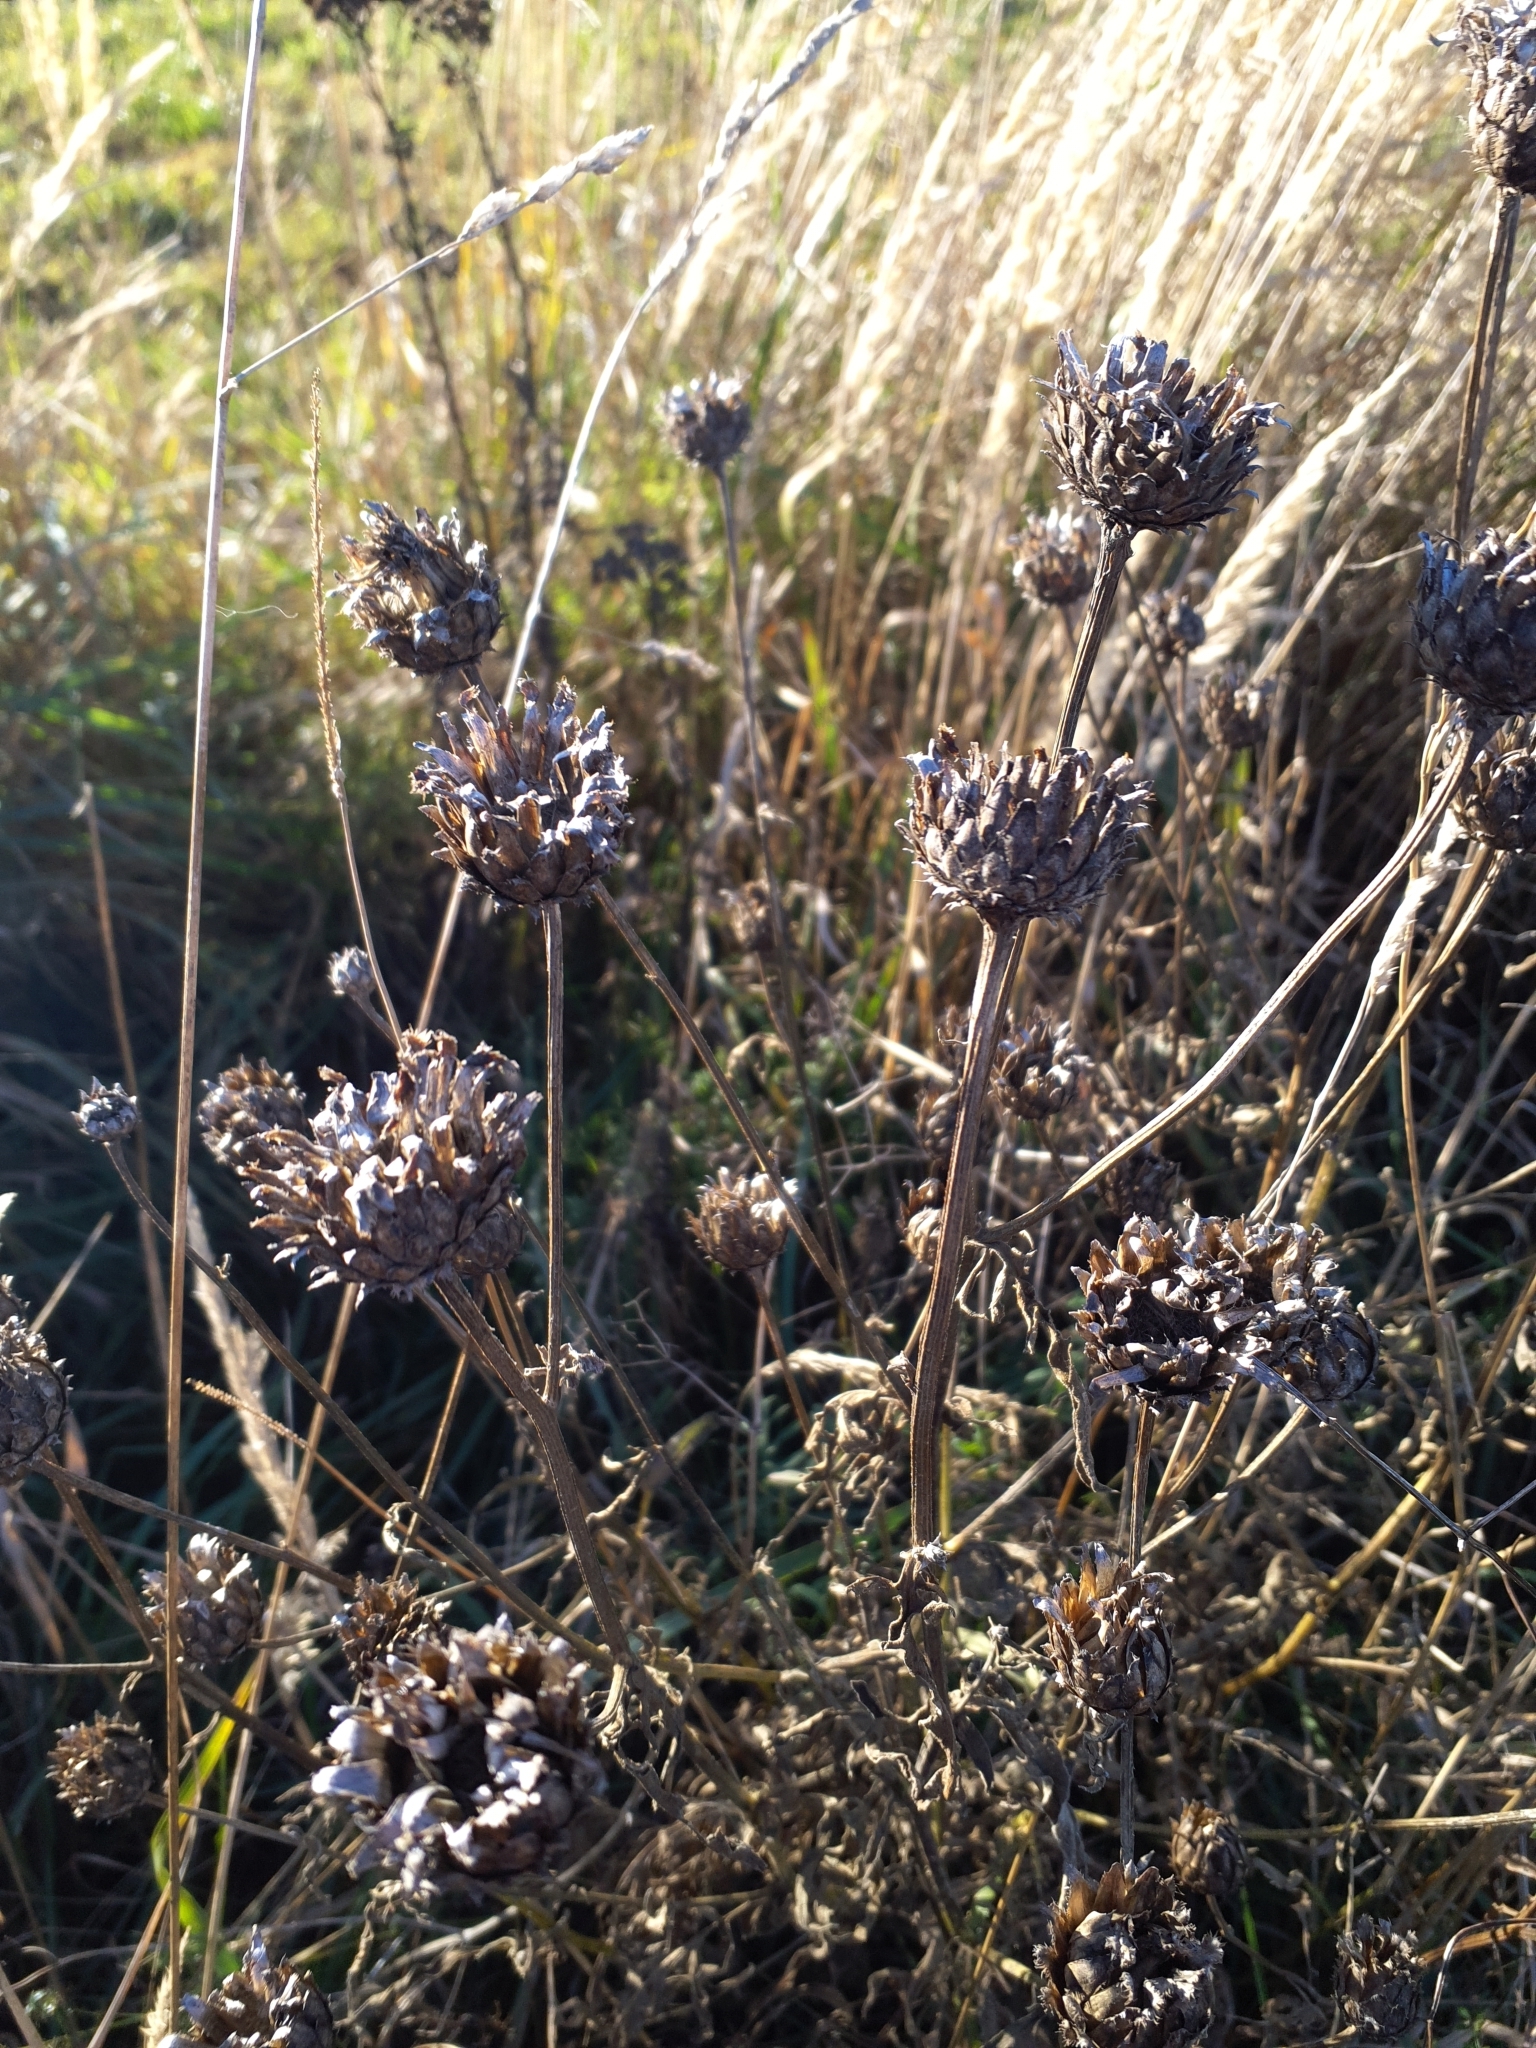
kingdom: Plantae
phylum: Tracheophyta
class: Magnoliopsida
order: Asterales
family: Asteraceae
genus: Centaurea
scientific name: Centaurea scabiosa
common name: Greater knapweed
